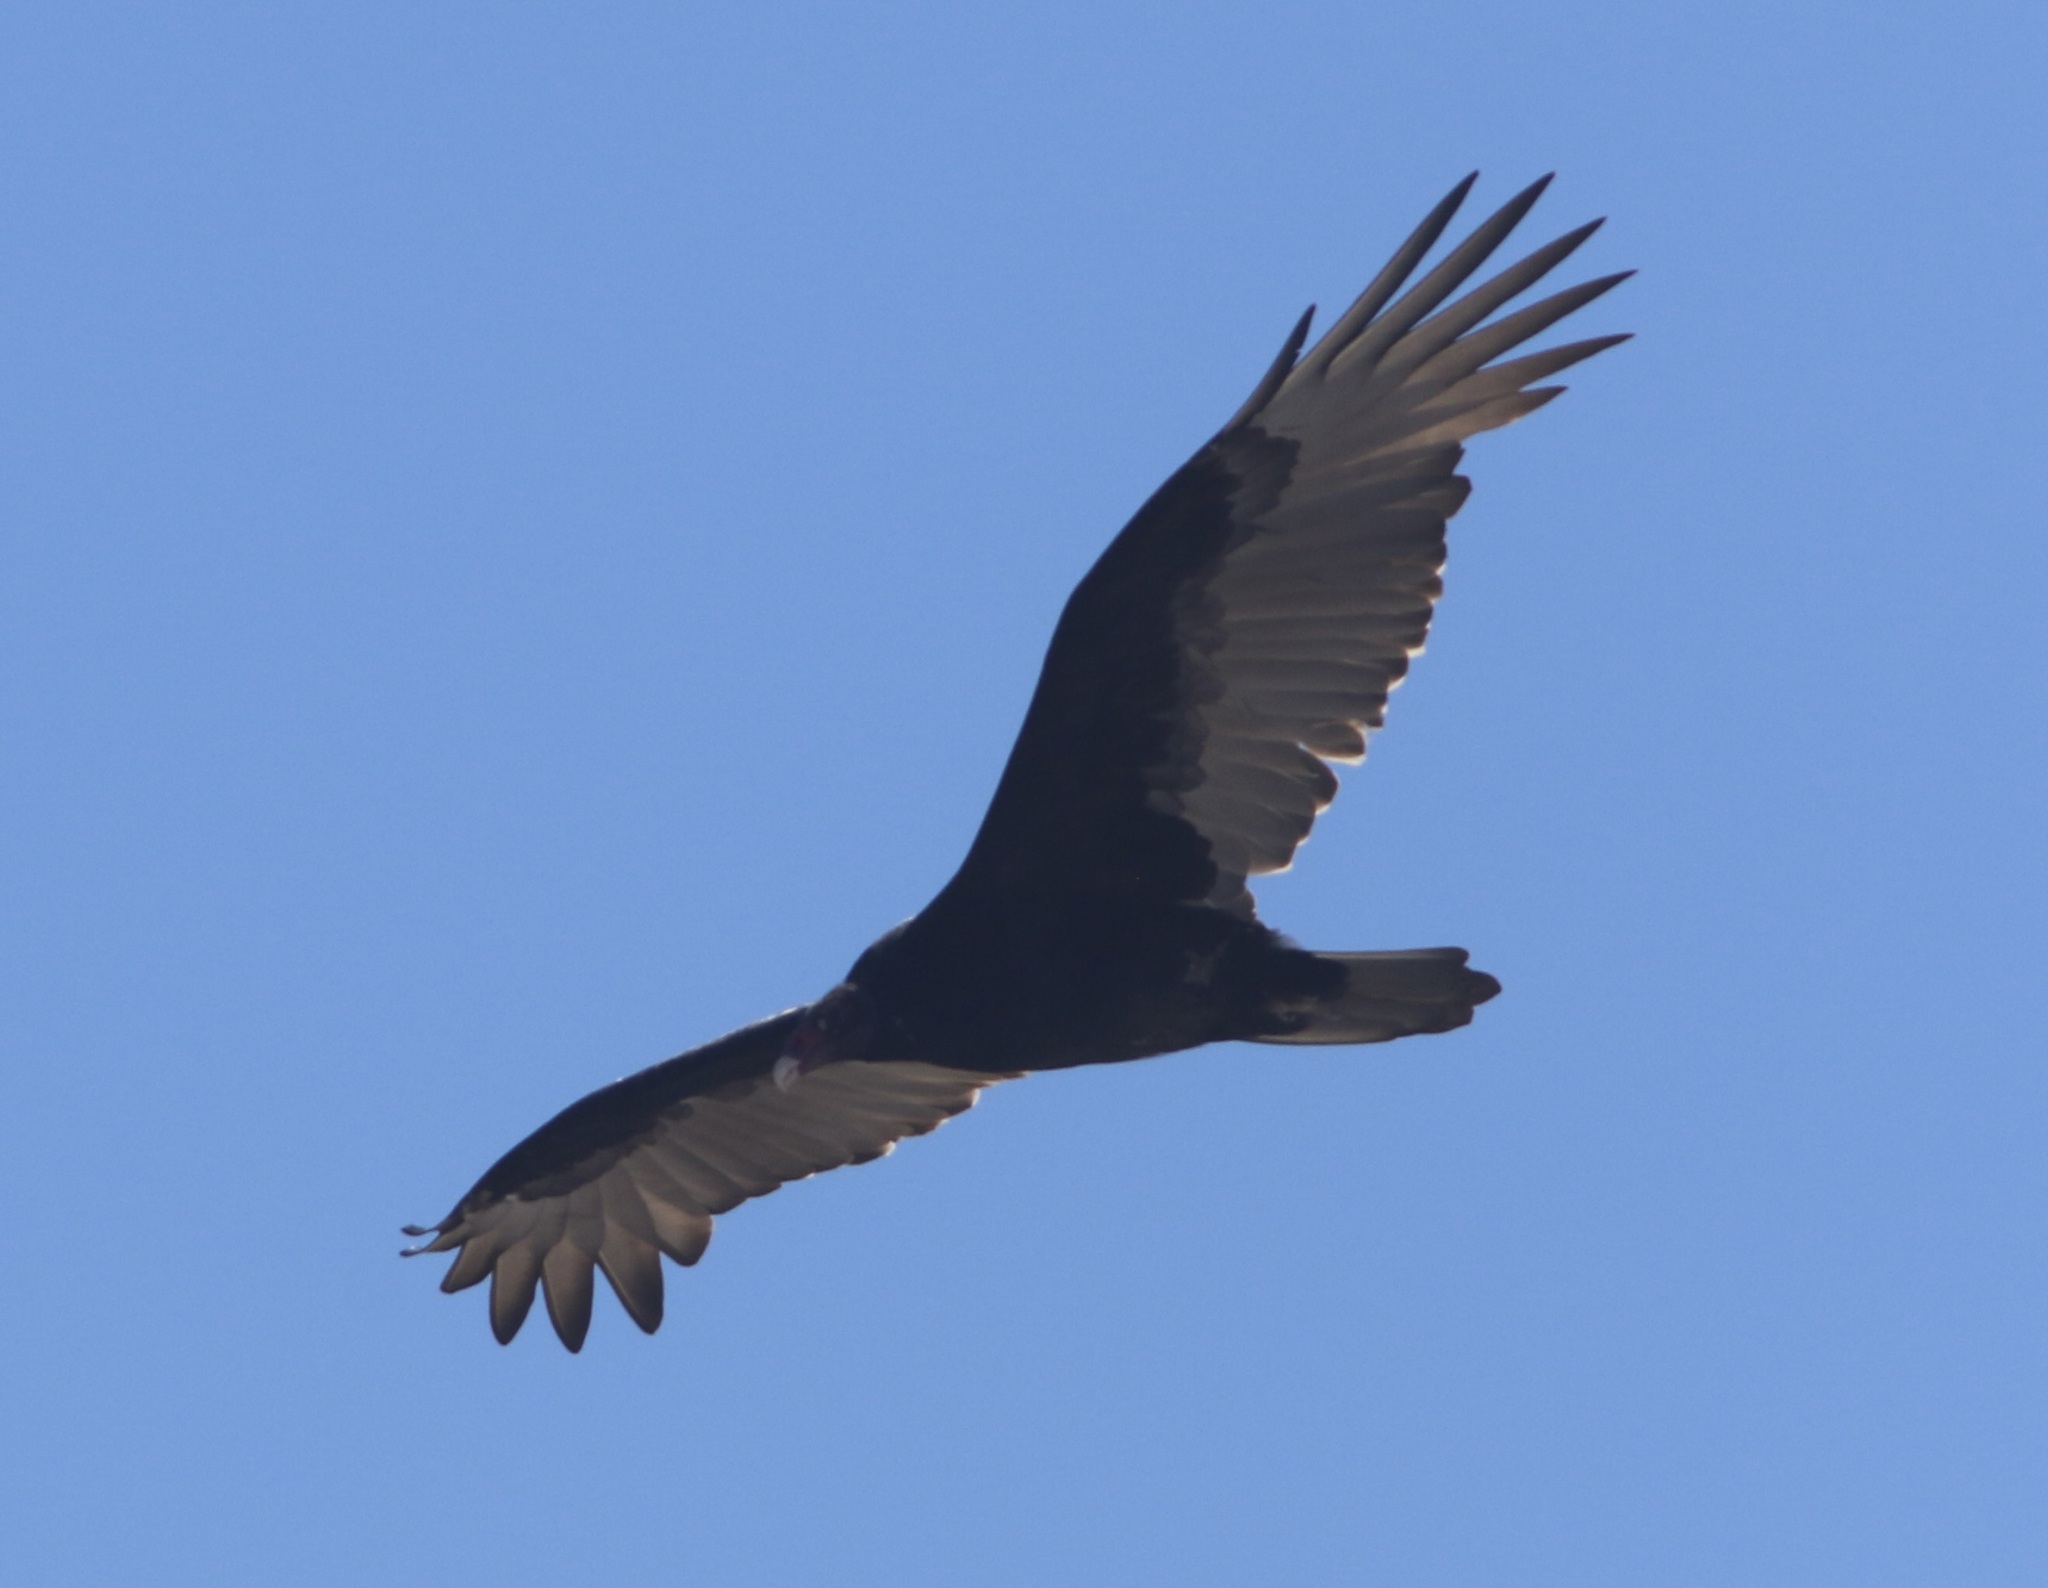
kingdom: Animalia
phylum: Chordata
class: Aves
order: Accipitriformes
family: Cathartidae
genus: Cathartes
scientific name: Cathartes aura
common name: Turkey vulture
